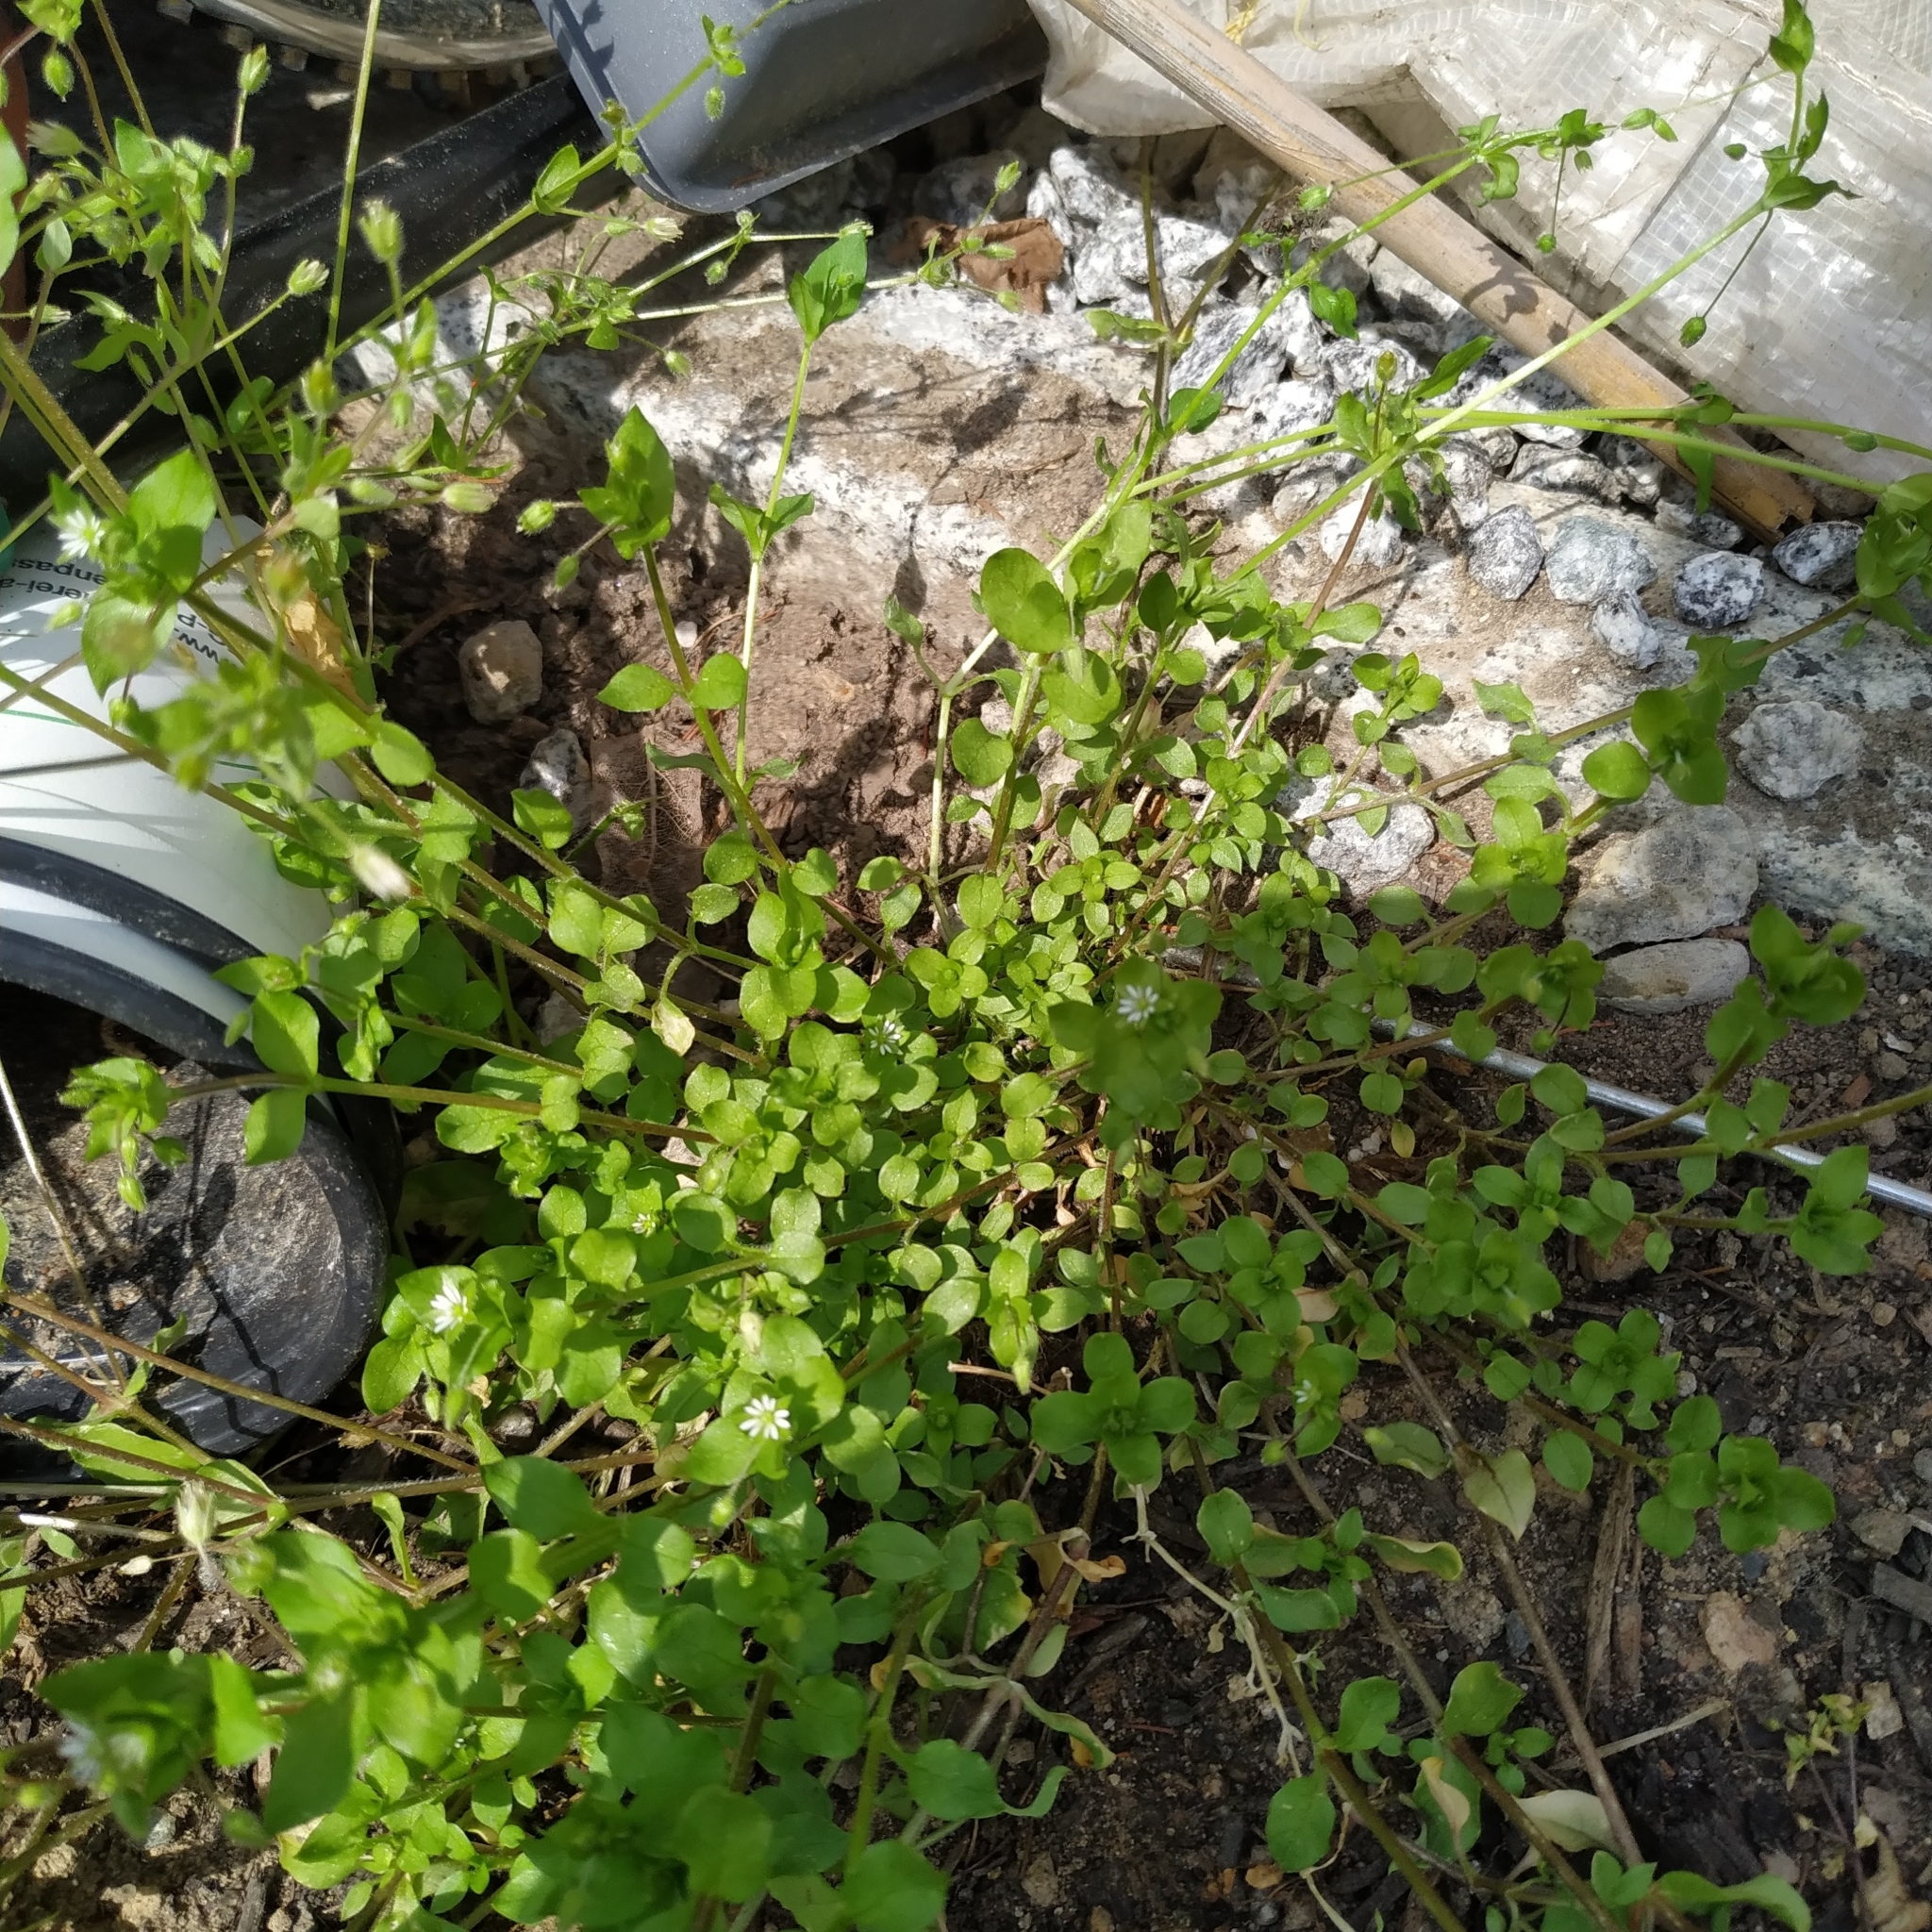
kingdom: Plantae
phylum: Tracheophyta
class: Magnoliopsida
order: Caryophyllales
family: Caryophyllaceae
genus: Stellaria
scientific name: Stellaria media
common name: Common chickweed
